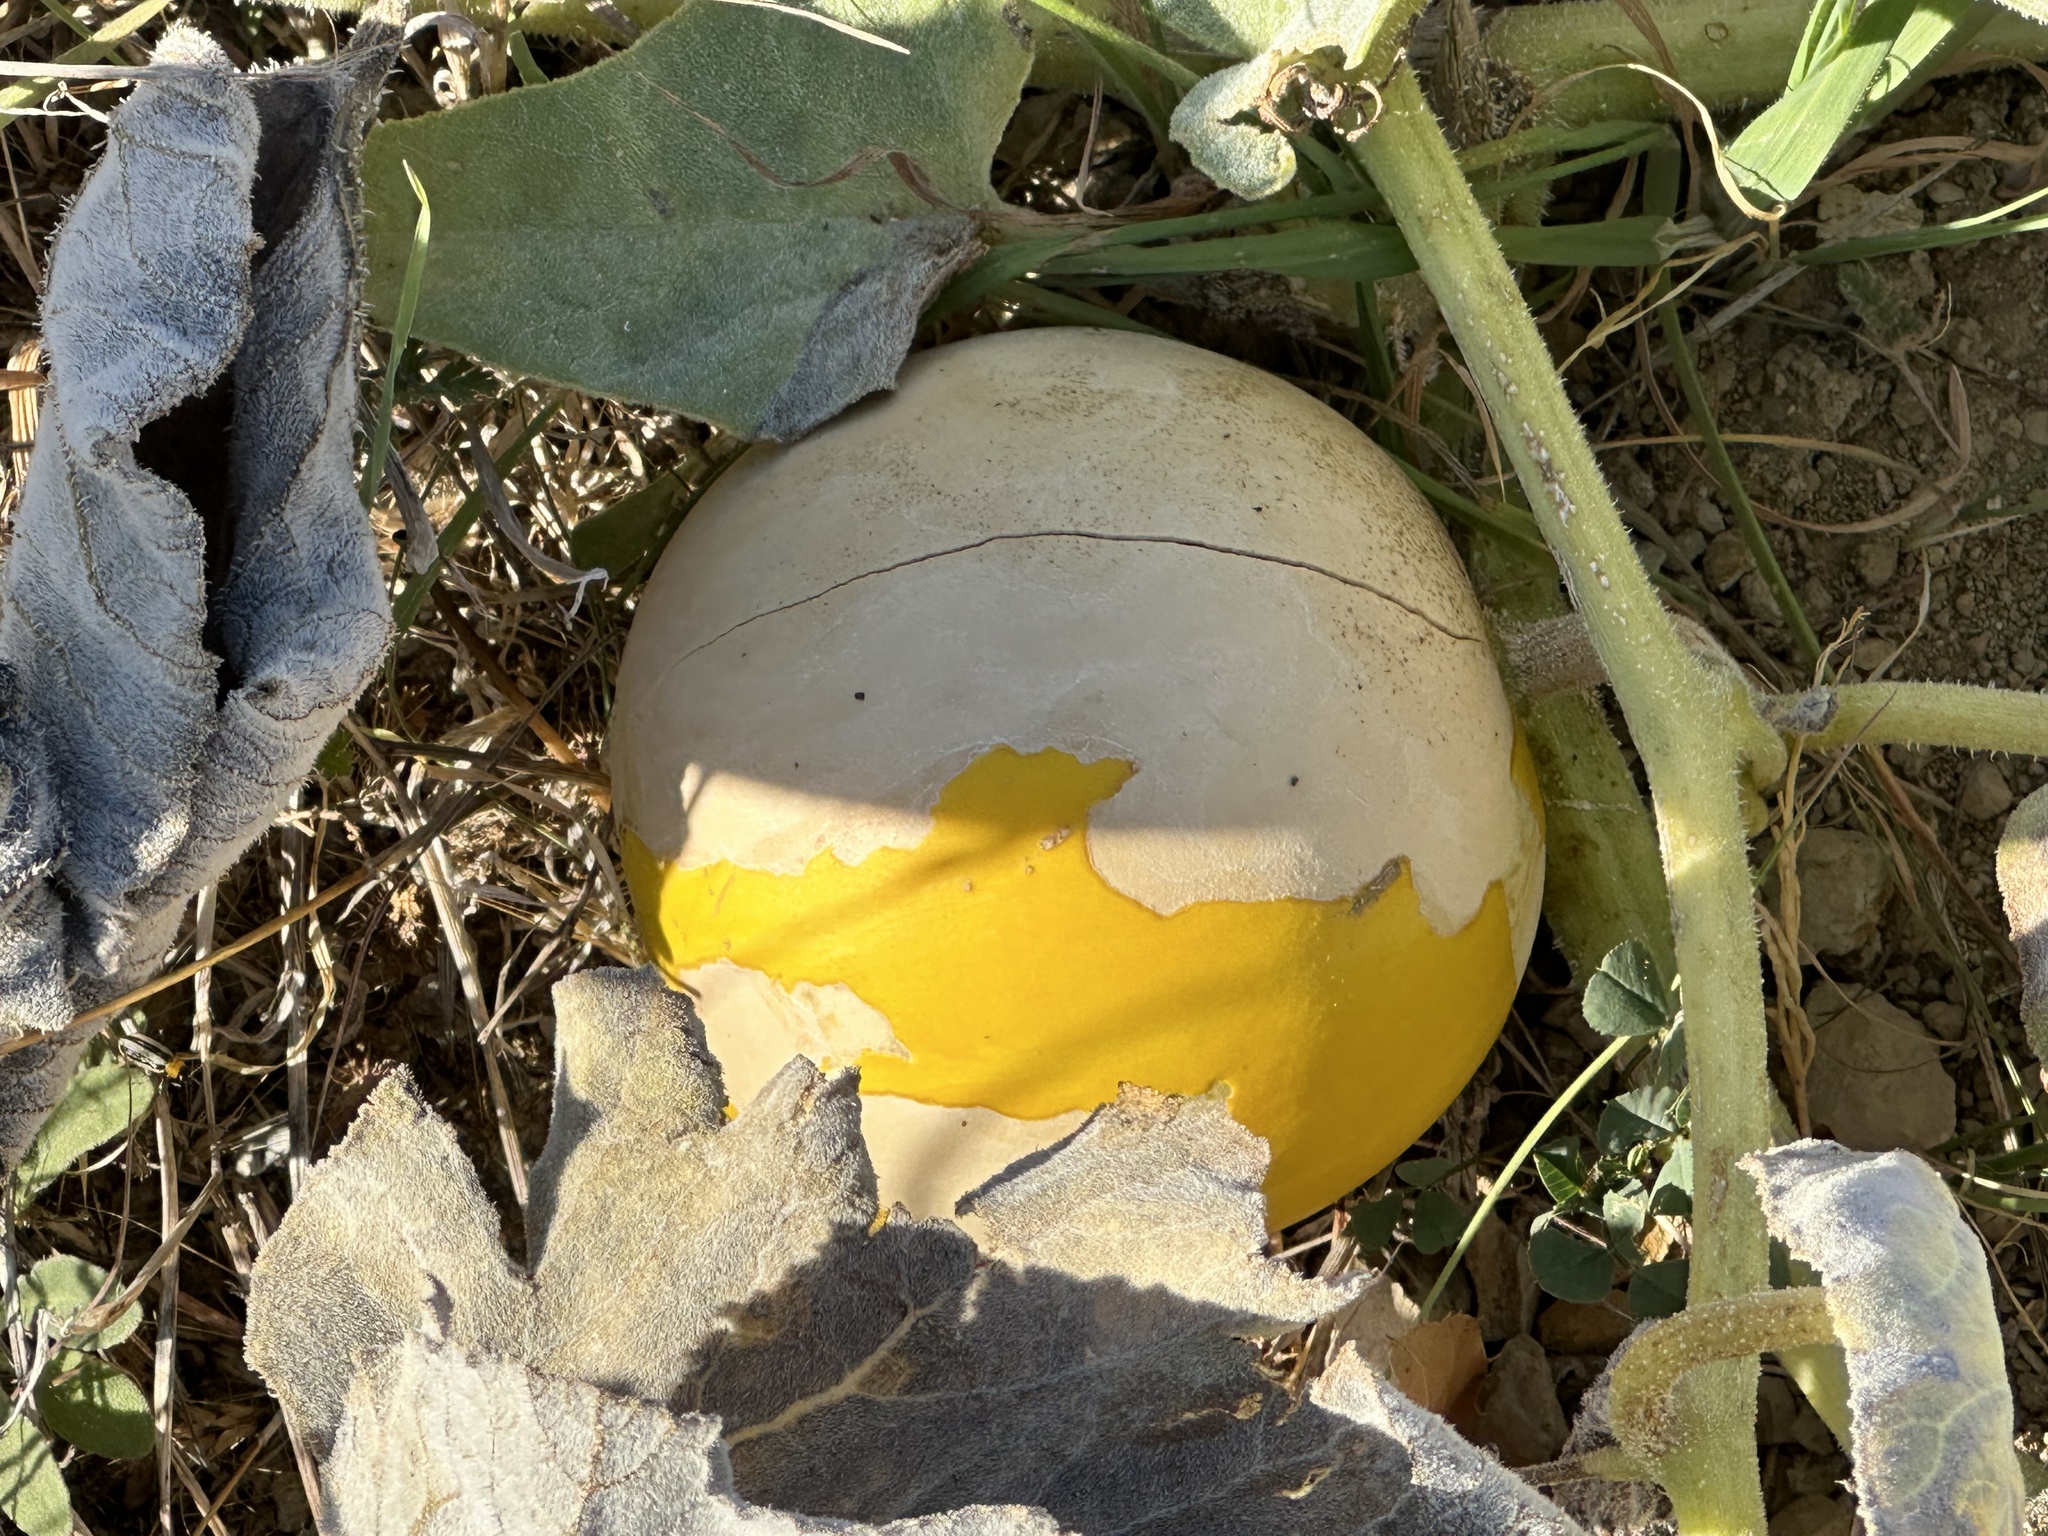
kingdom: Plantae
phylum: Tracheophyta
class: Magnoliopsida
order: Cucurbitales
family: Cucurbitaceae
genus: Cucurbita
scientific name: Cucurbita foetidissima
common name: Buffalo gourd
